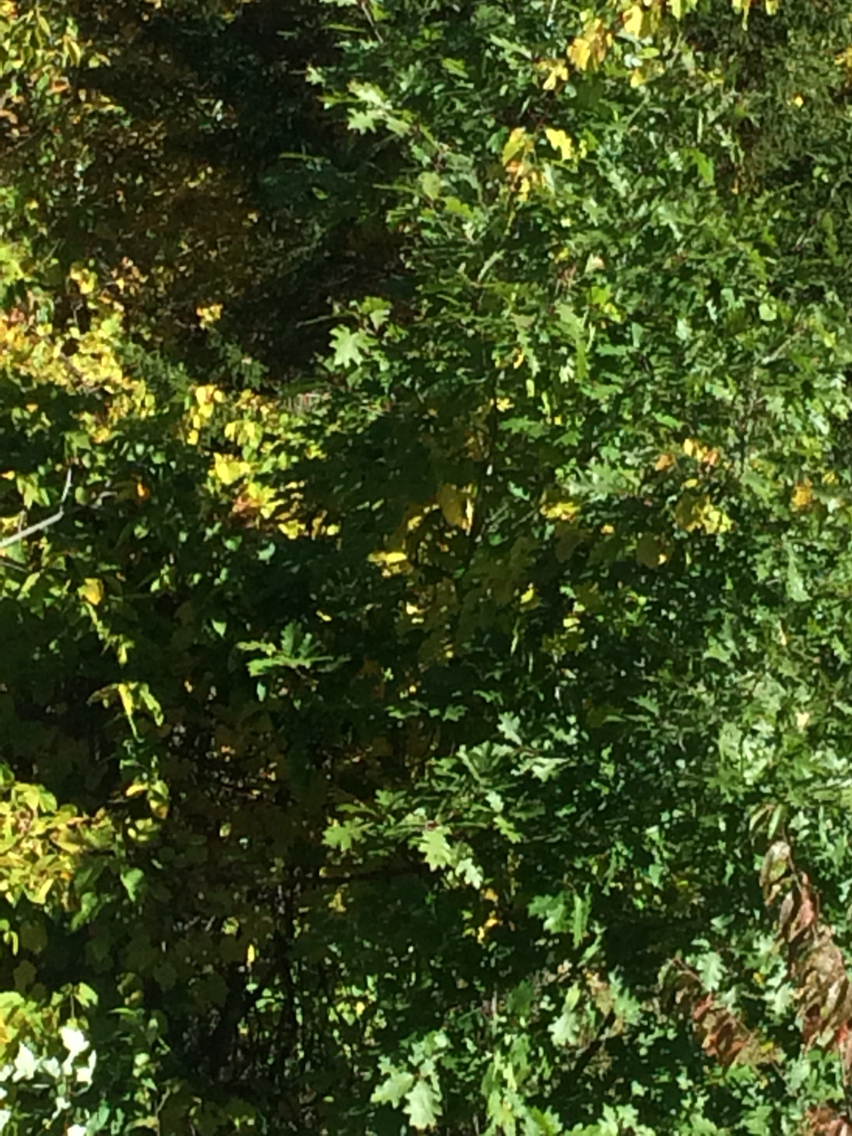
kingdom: Plantae
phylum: Tracheophyta
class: Magnoliopsida
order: Fagales
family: Fagaceae
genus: Quercus
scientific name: Quercus rubra
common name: Red oak
